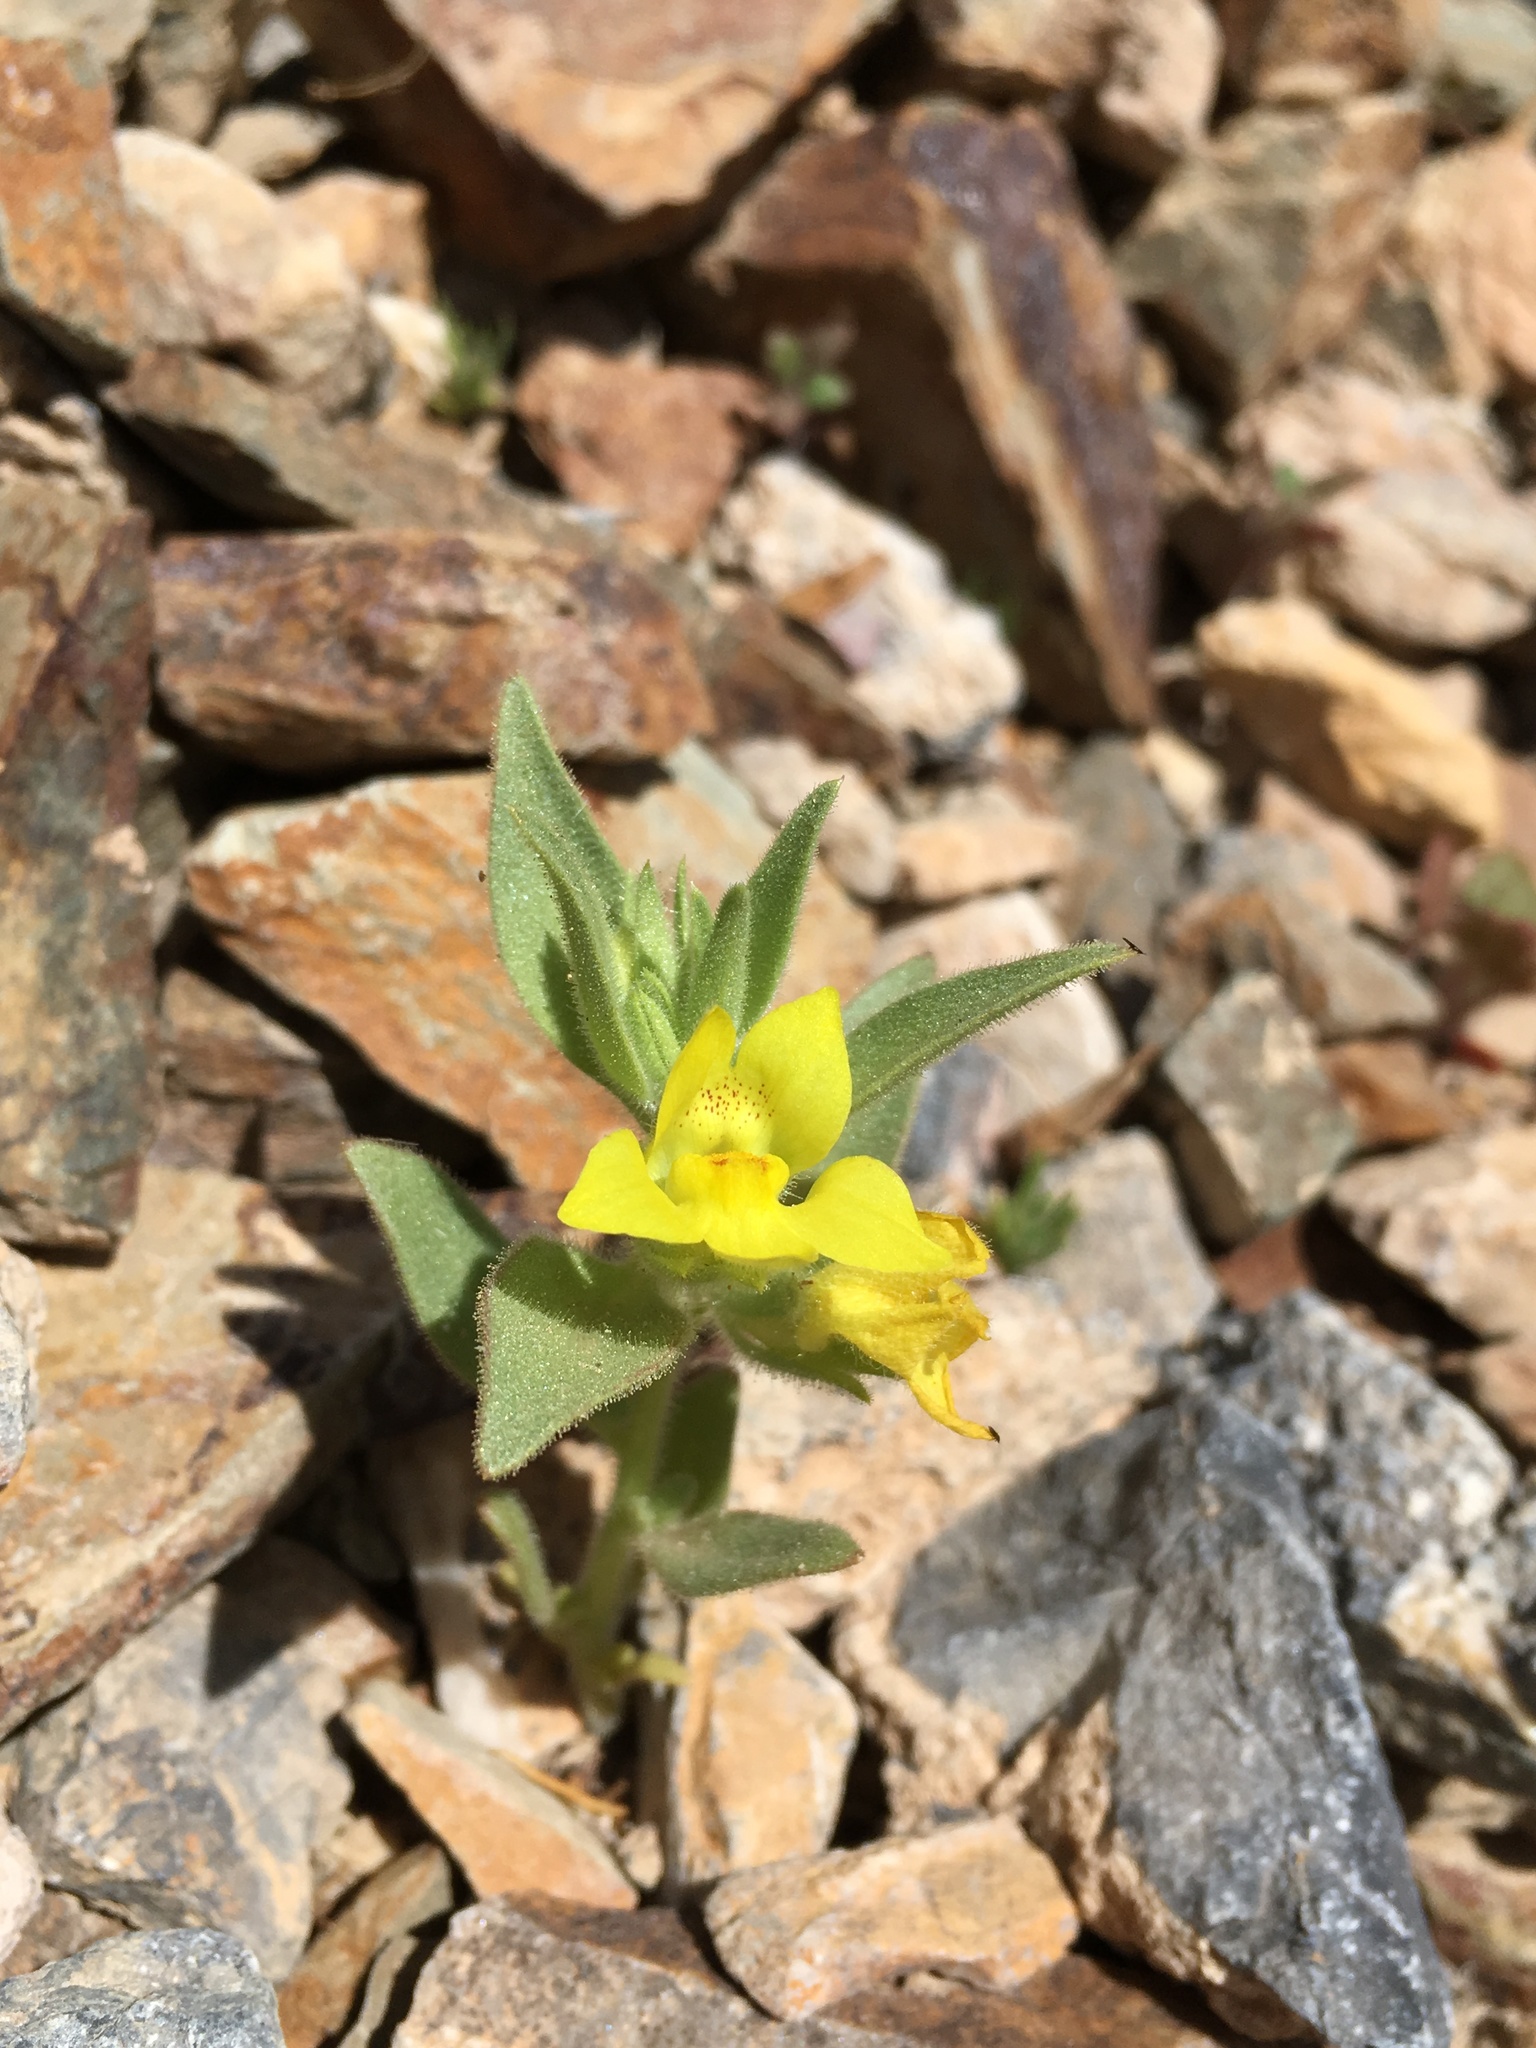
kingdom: Plantae
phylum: Tracheophyta
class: Magnoliopsida
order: Lamiales
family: Plantaginaceae
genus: Mohavea
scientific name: Mohavea breviflora
